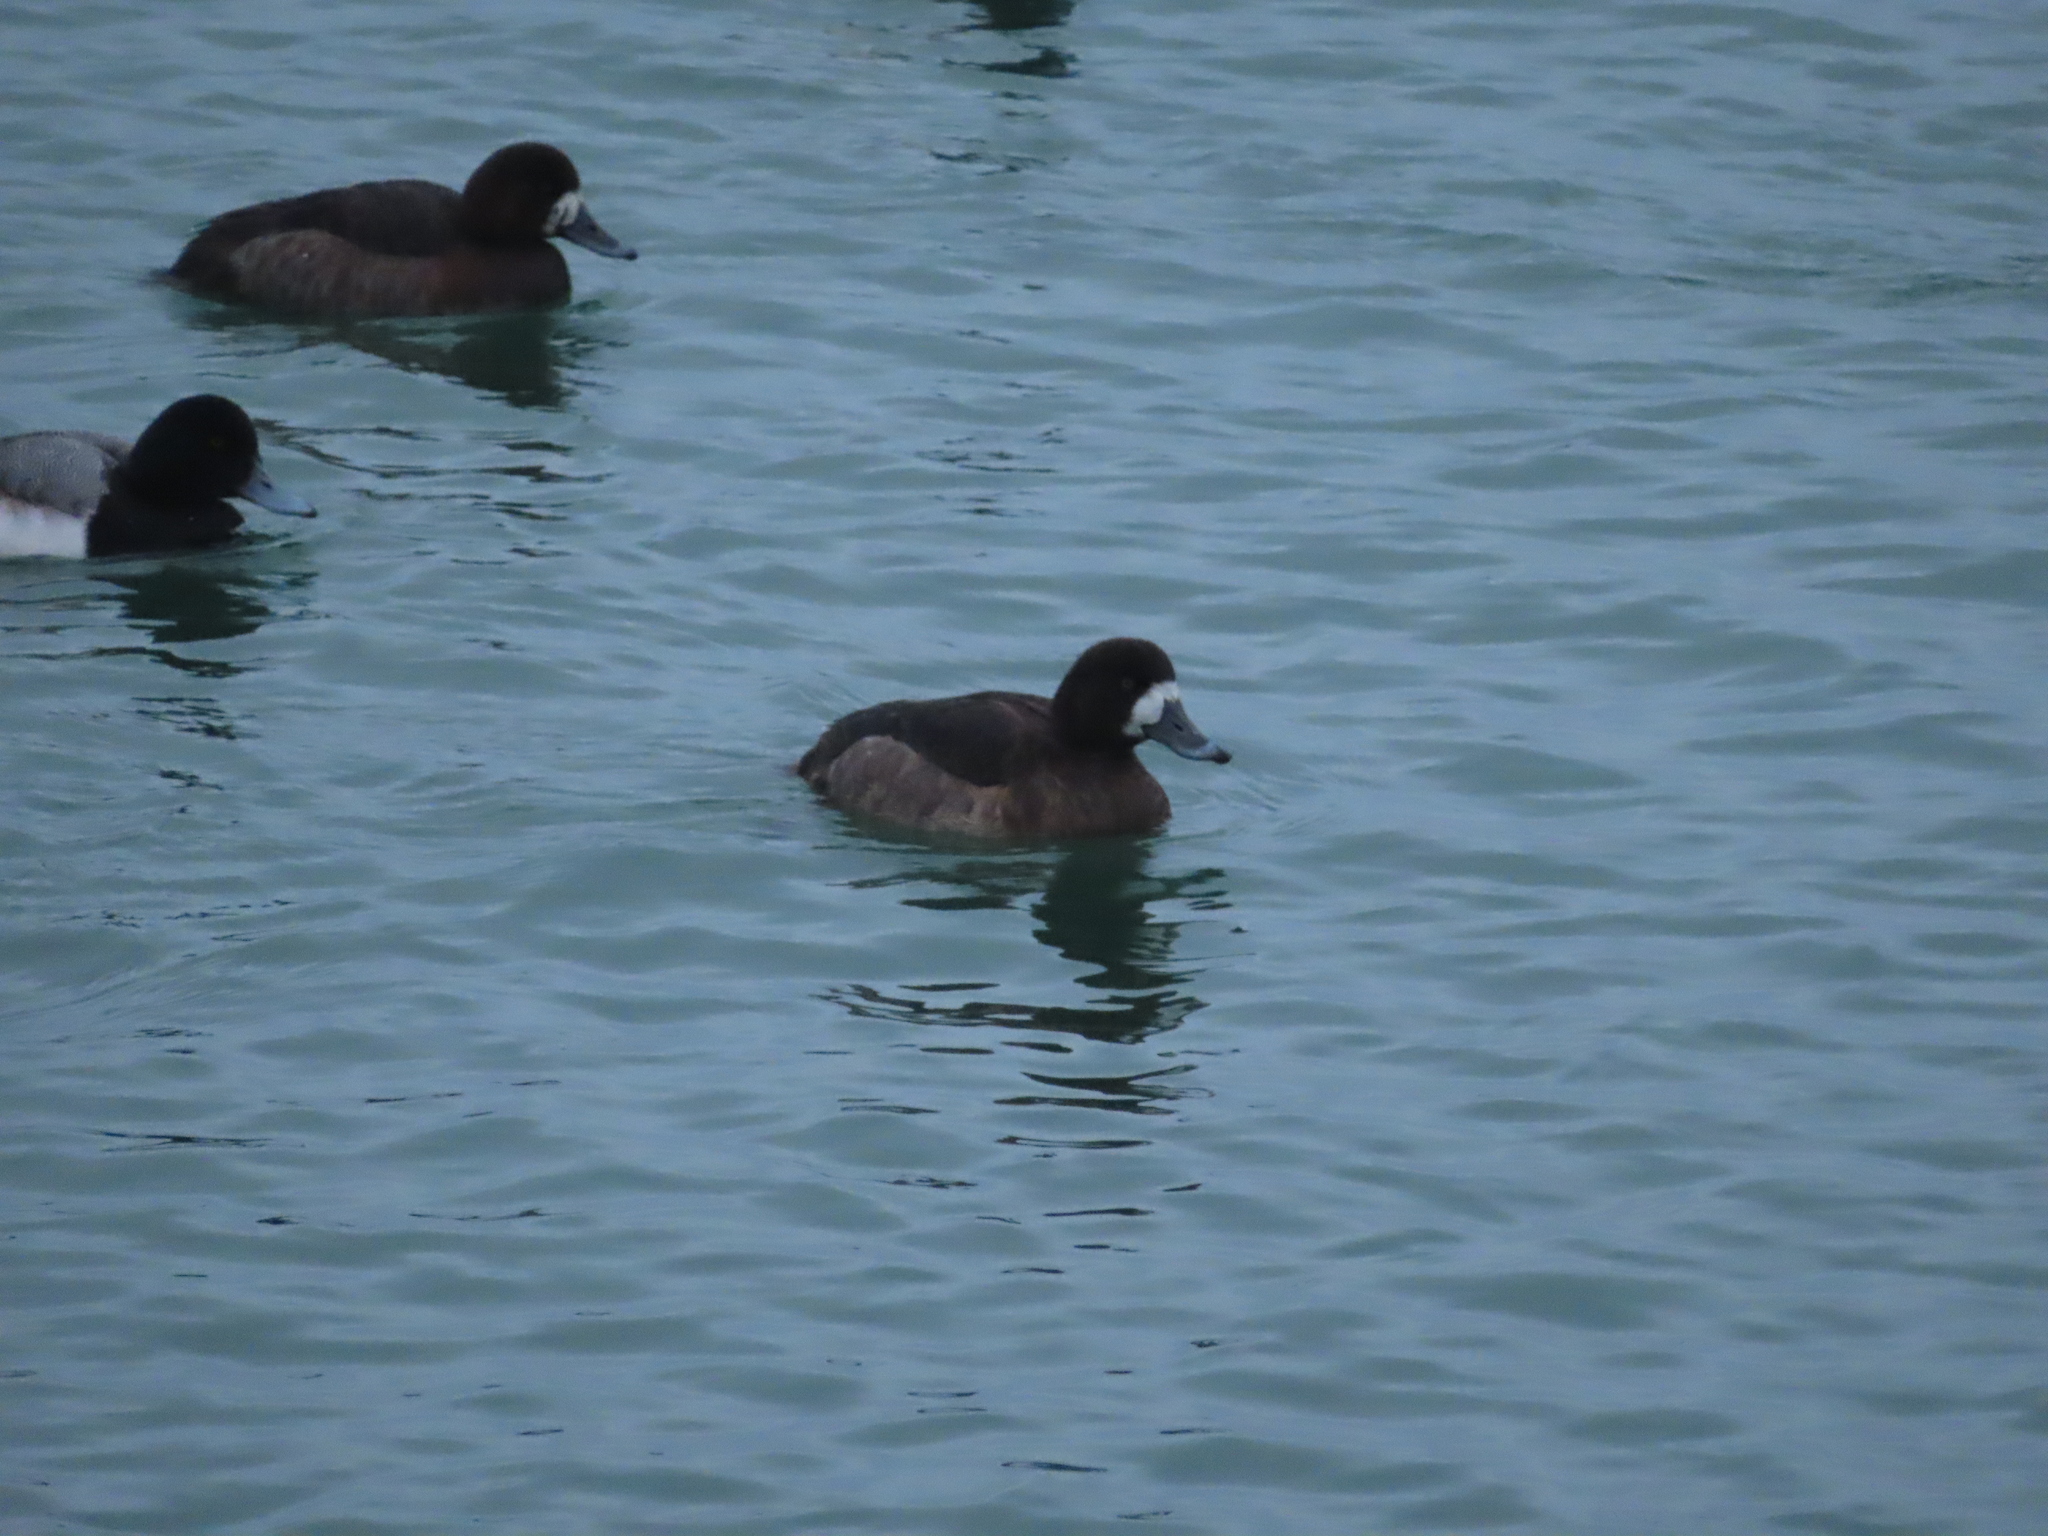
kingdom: Animalia
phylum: Chordata
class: Aves
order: Anseriformes
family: Anatidae
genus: Aythya
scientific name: Aythya marila
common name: Greater scaup
